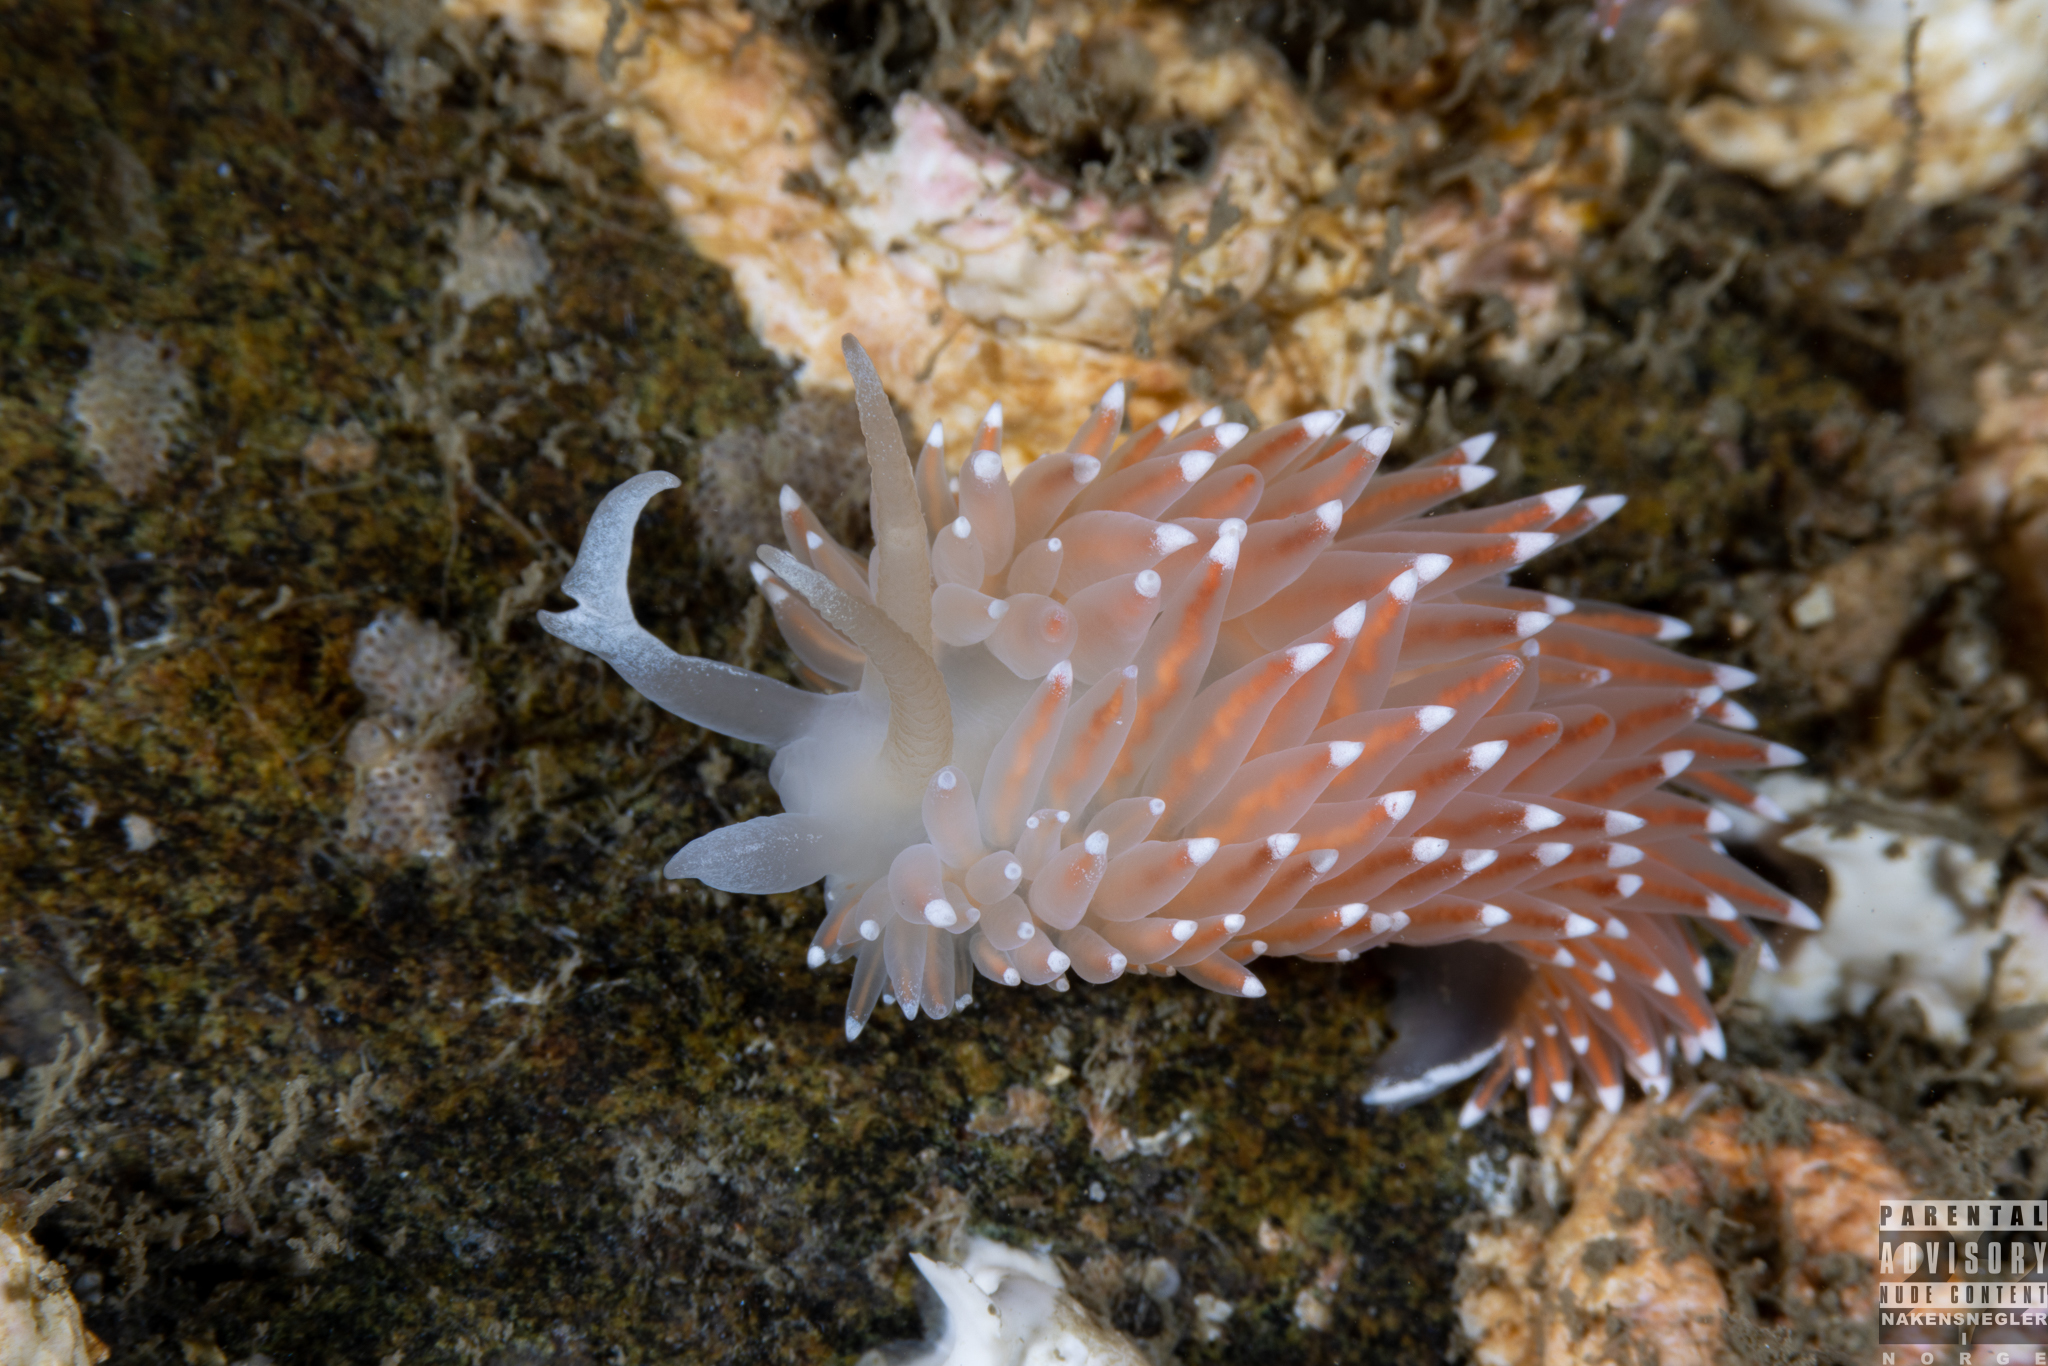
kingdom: Animalia
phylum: Mollusca
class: Gastropoda
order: Nudibranchia
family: Coryphellidae
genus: Coryphella
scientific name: Coryphella nobilis
